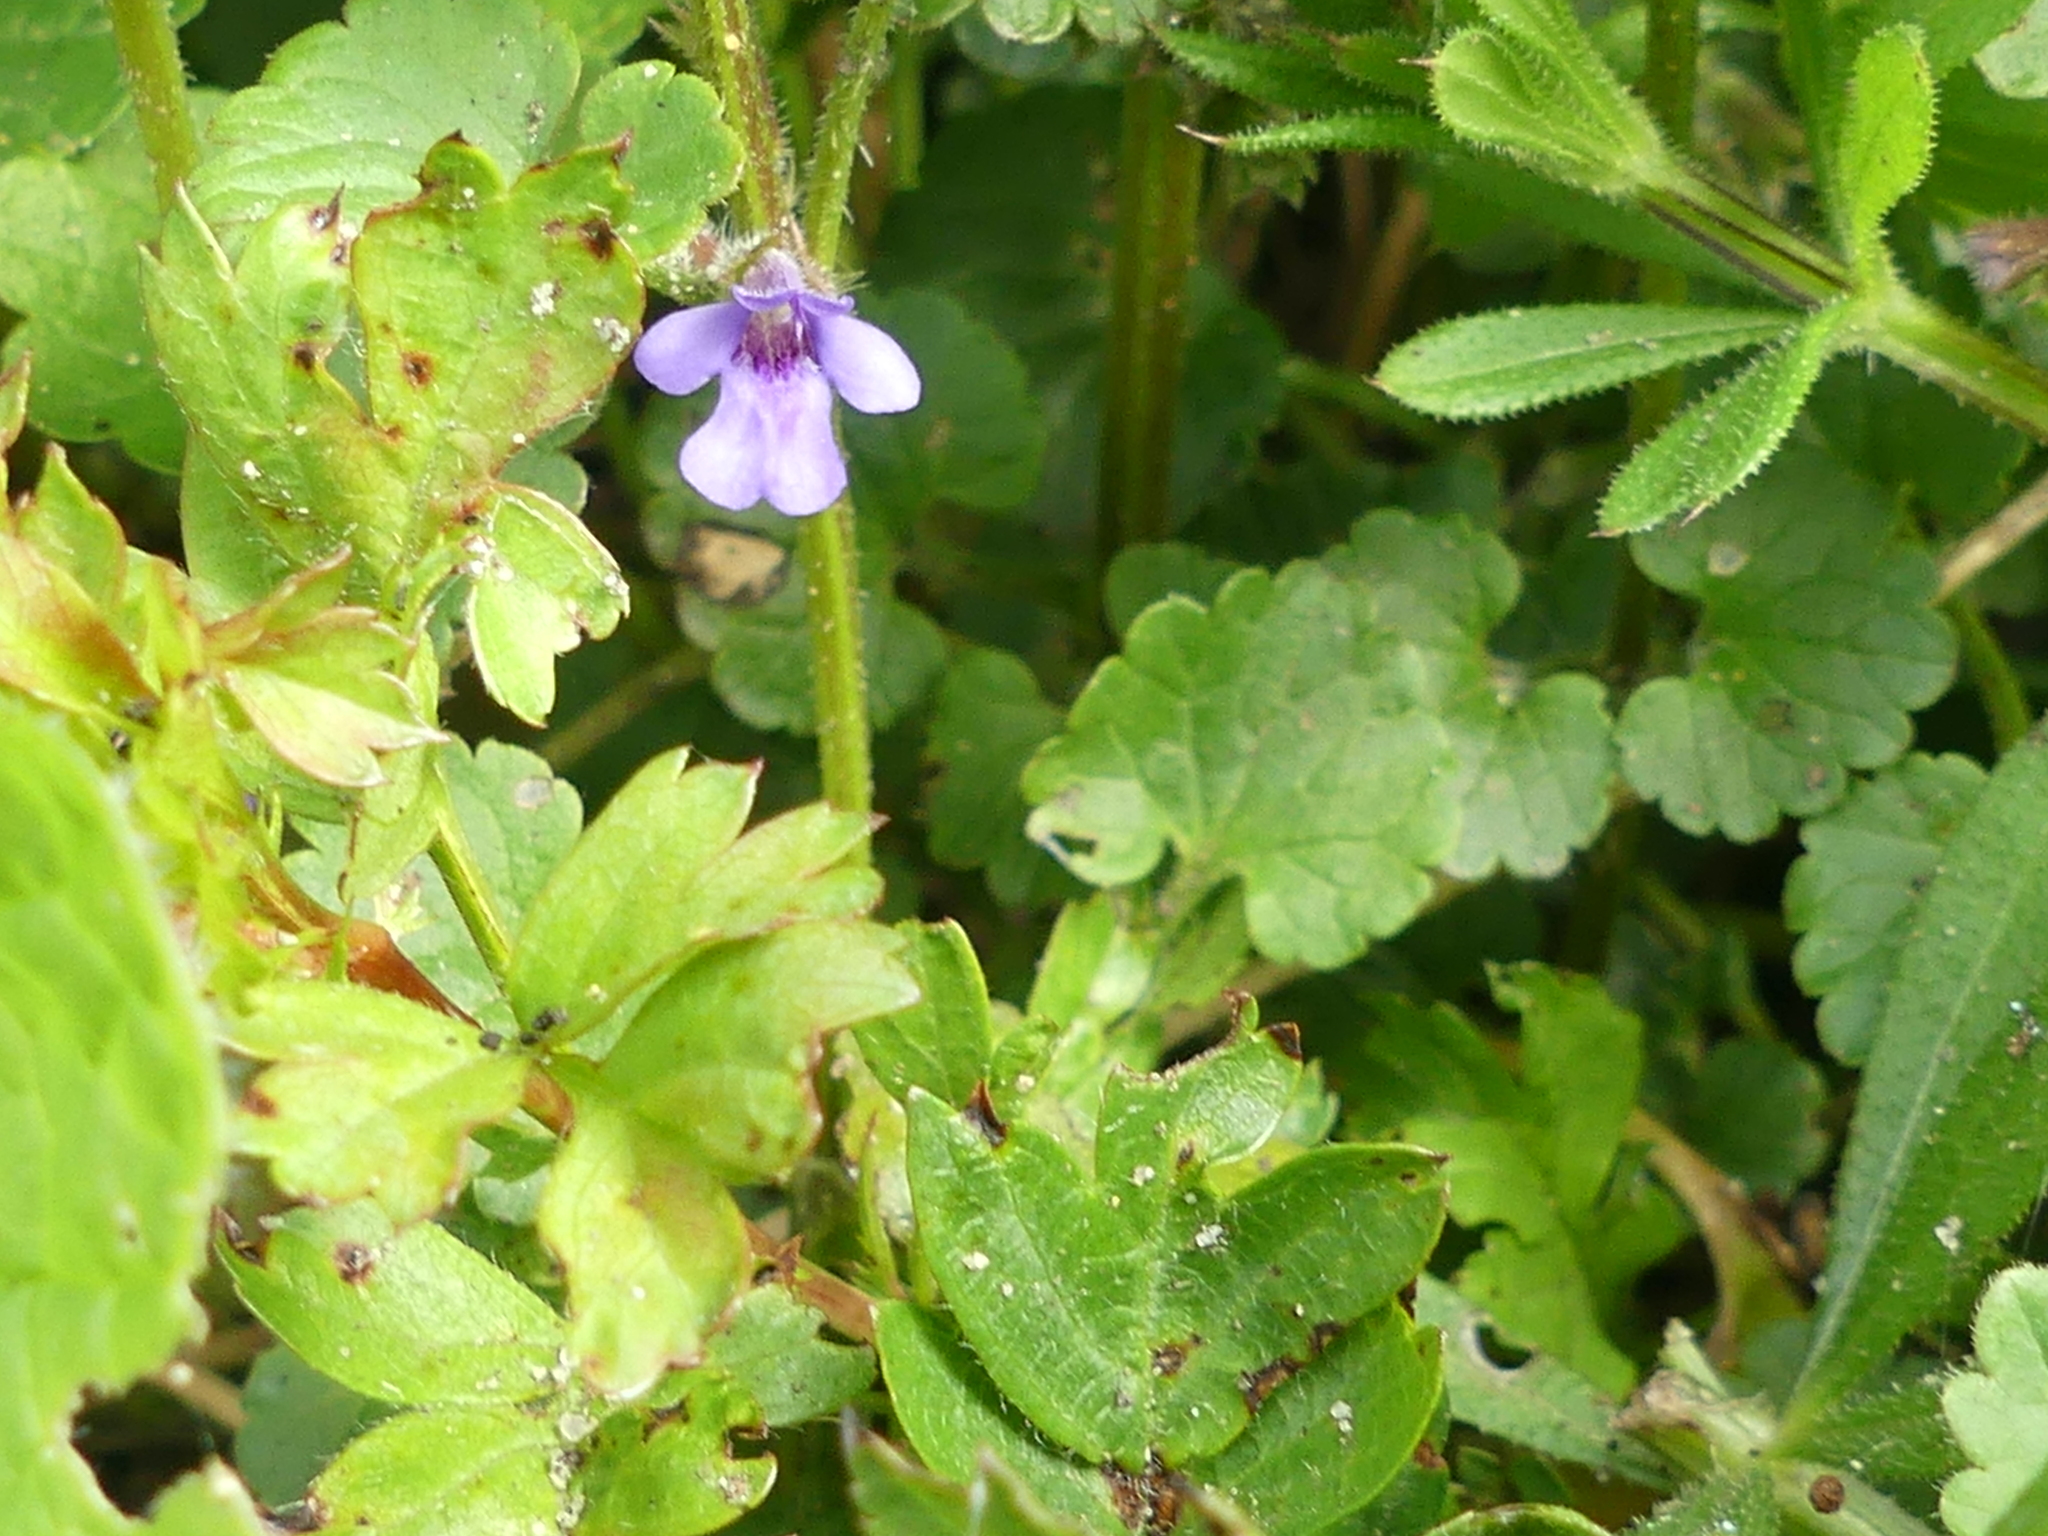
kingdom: Plantae
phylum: Tracheophyta
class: Magnoliopsida
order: Lamiales
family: Lamiaceae
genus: Glechoma
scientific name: Glechoma hederacea
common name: Ground ivy
